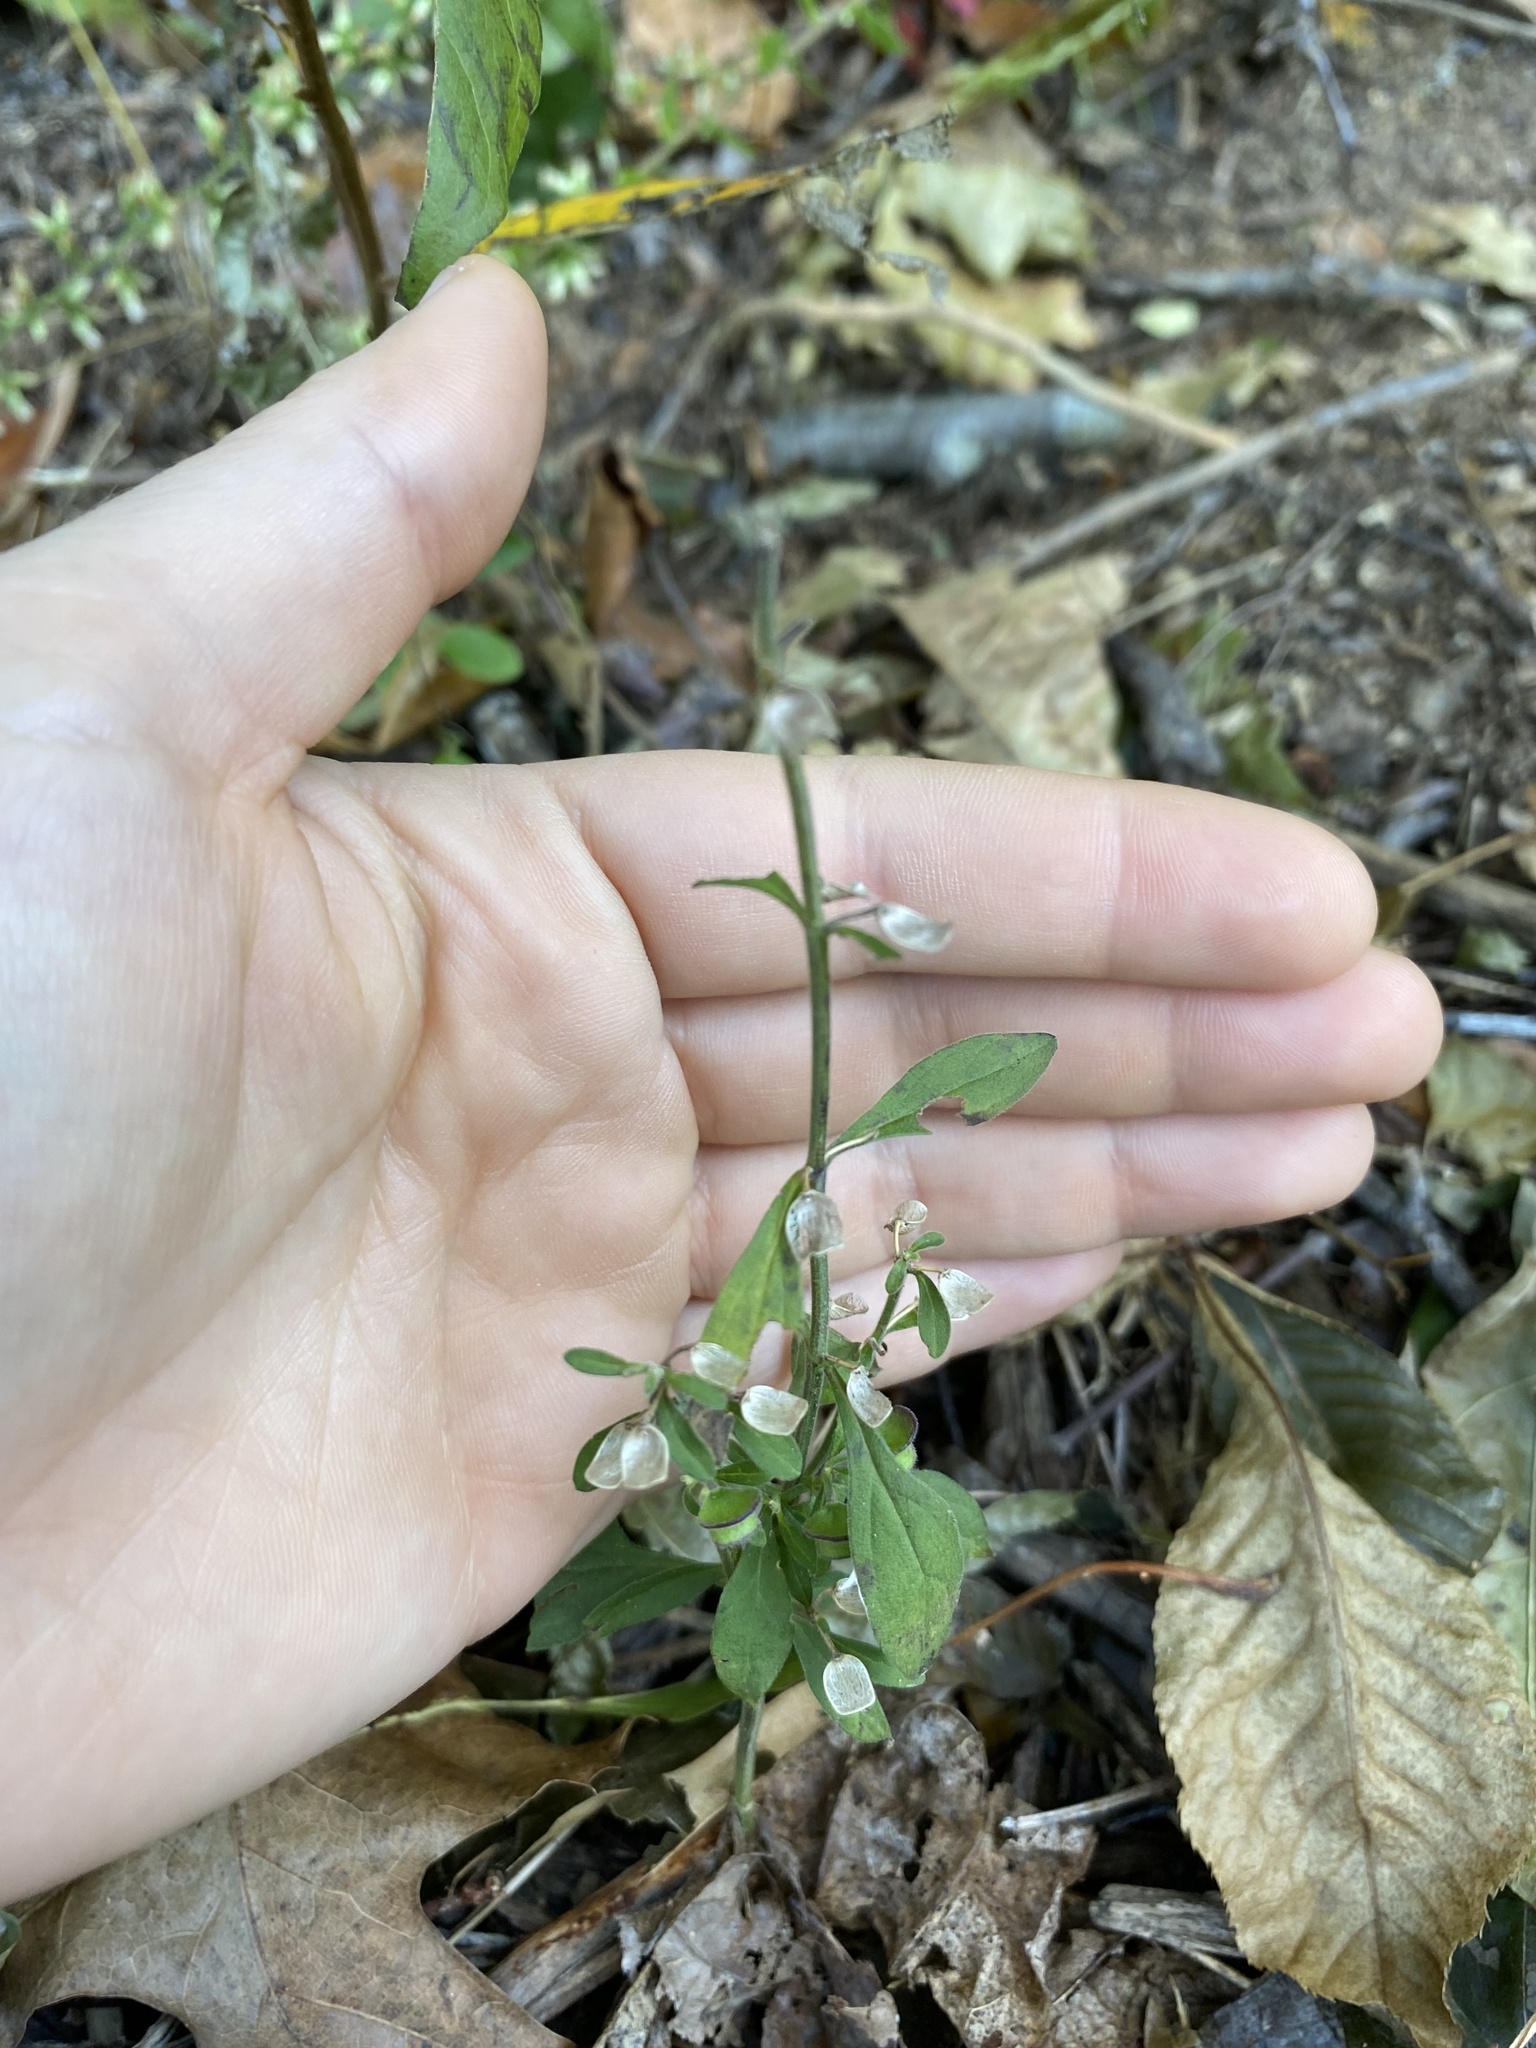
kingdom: Plantae
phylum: Tracheophyta
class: Magnoliopsida
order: Lamiales
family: Lamiaceae
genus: Scutellaria
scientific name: Scutellaria integrifolia
